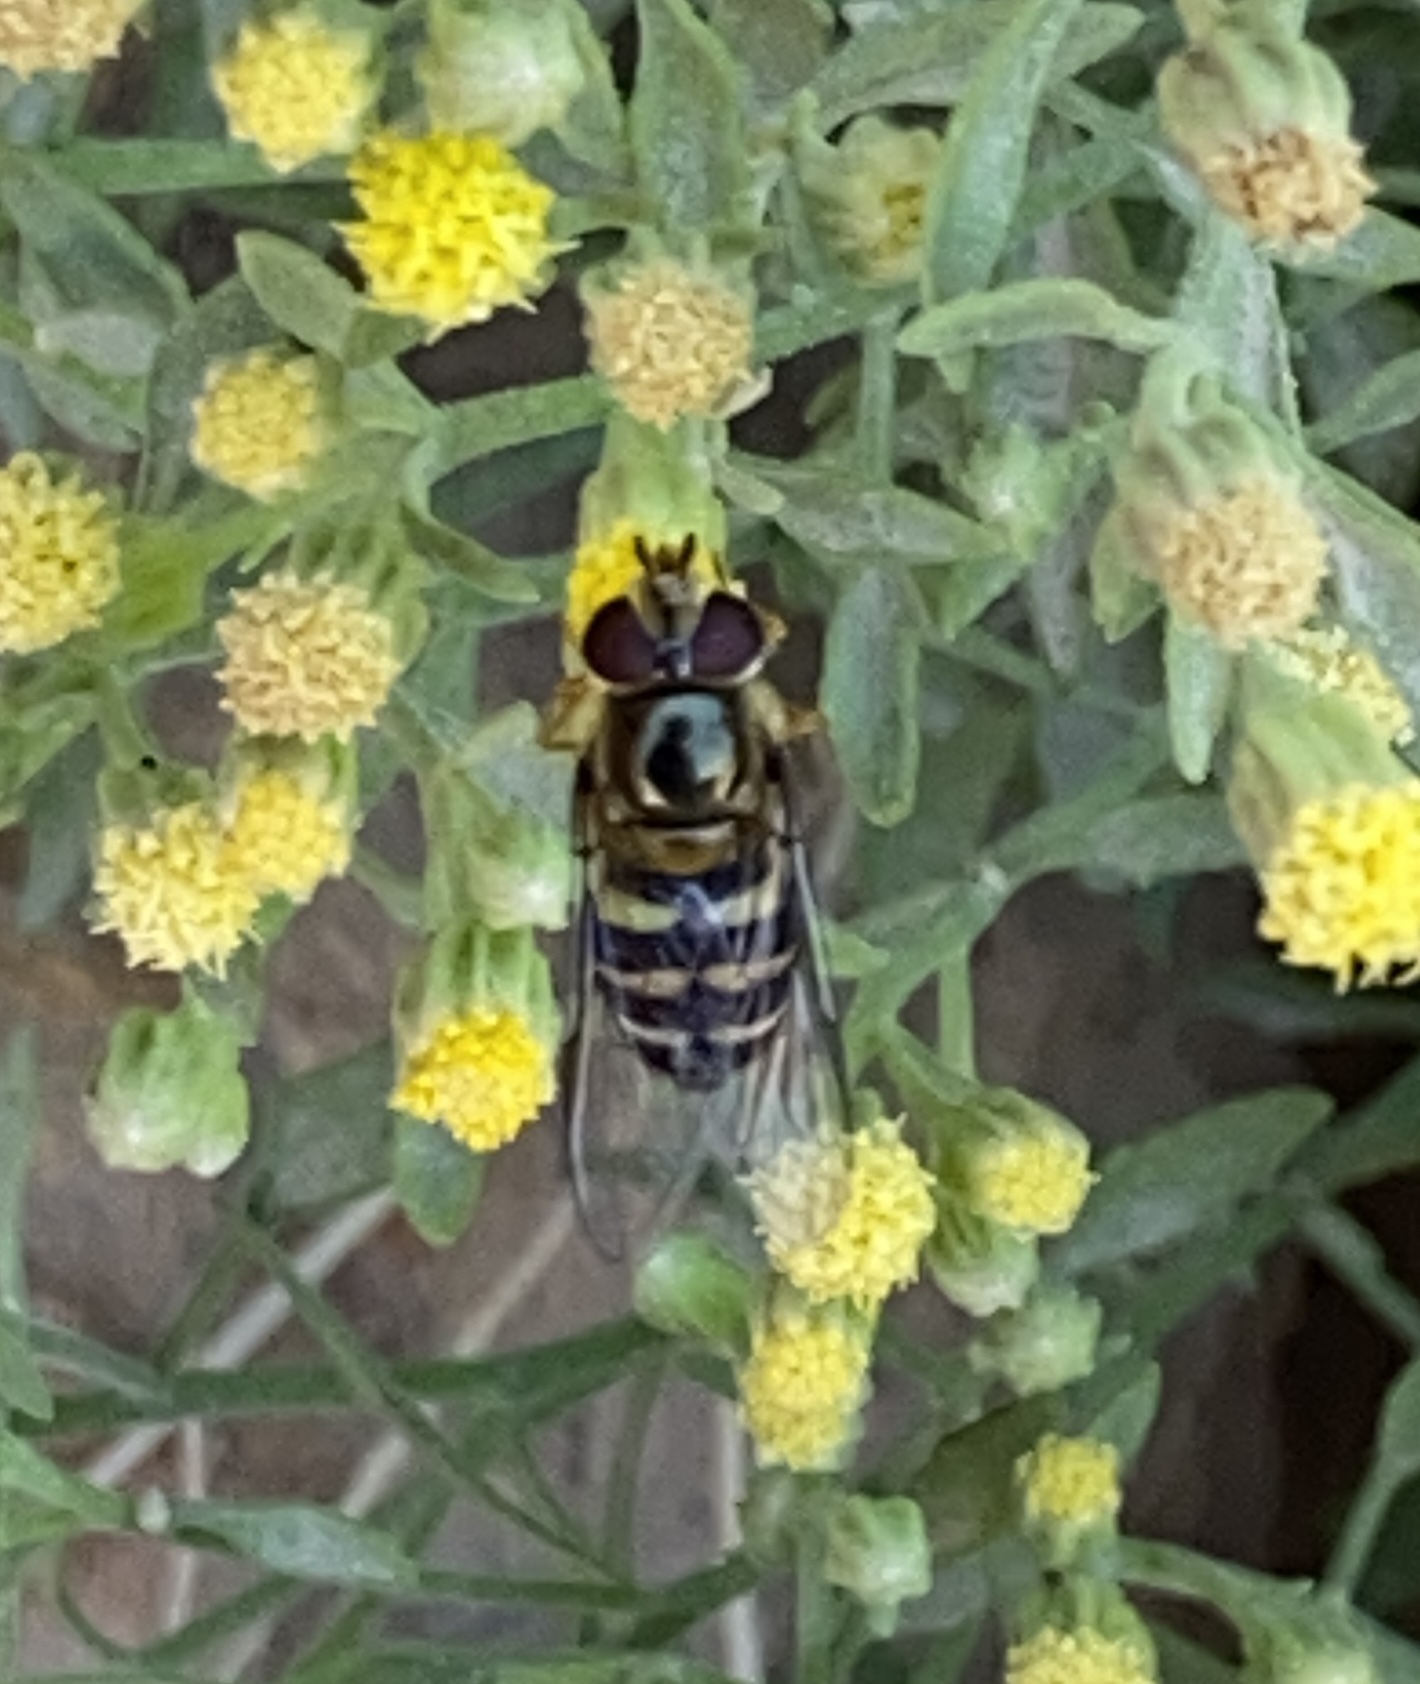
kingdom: Animalia
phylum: Arthropoda
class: Insecta
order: Diptera
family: Syrphidae
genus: Lapposyrphus
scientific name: Lapposyrphus lapponicus
